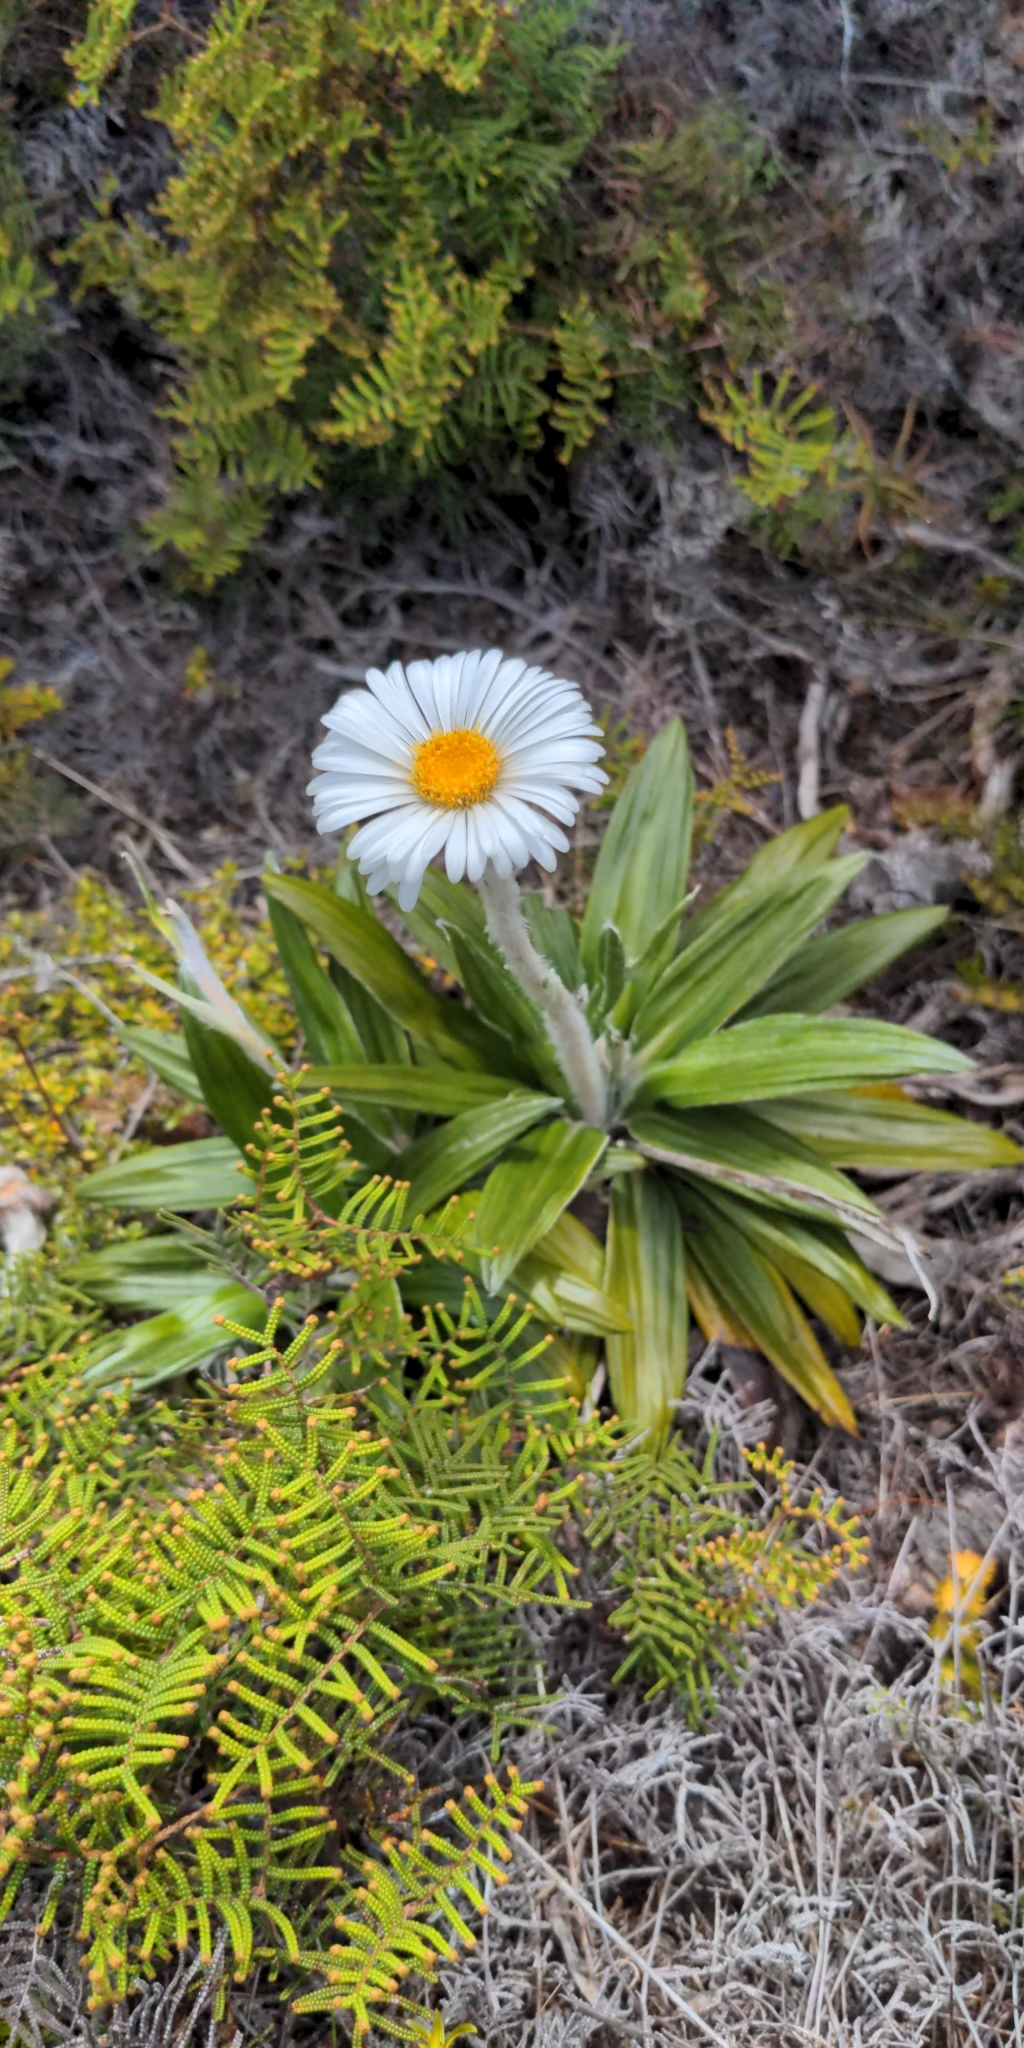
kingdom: Plantae
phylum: Tracheophyta
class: Magnoliopsida
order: Asterales
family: Asteraceae
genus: Celmisia
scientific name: Celmisia spectabilis
